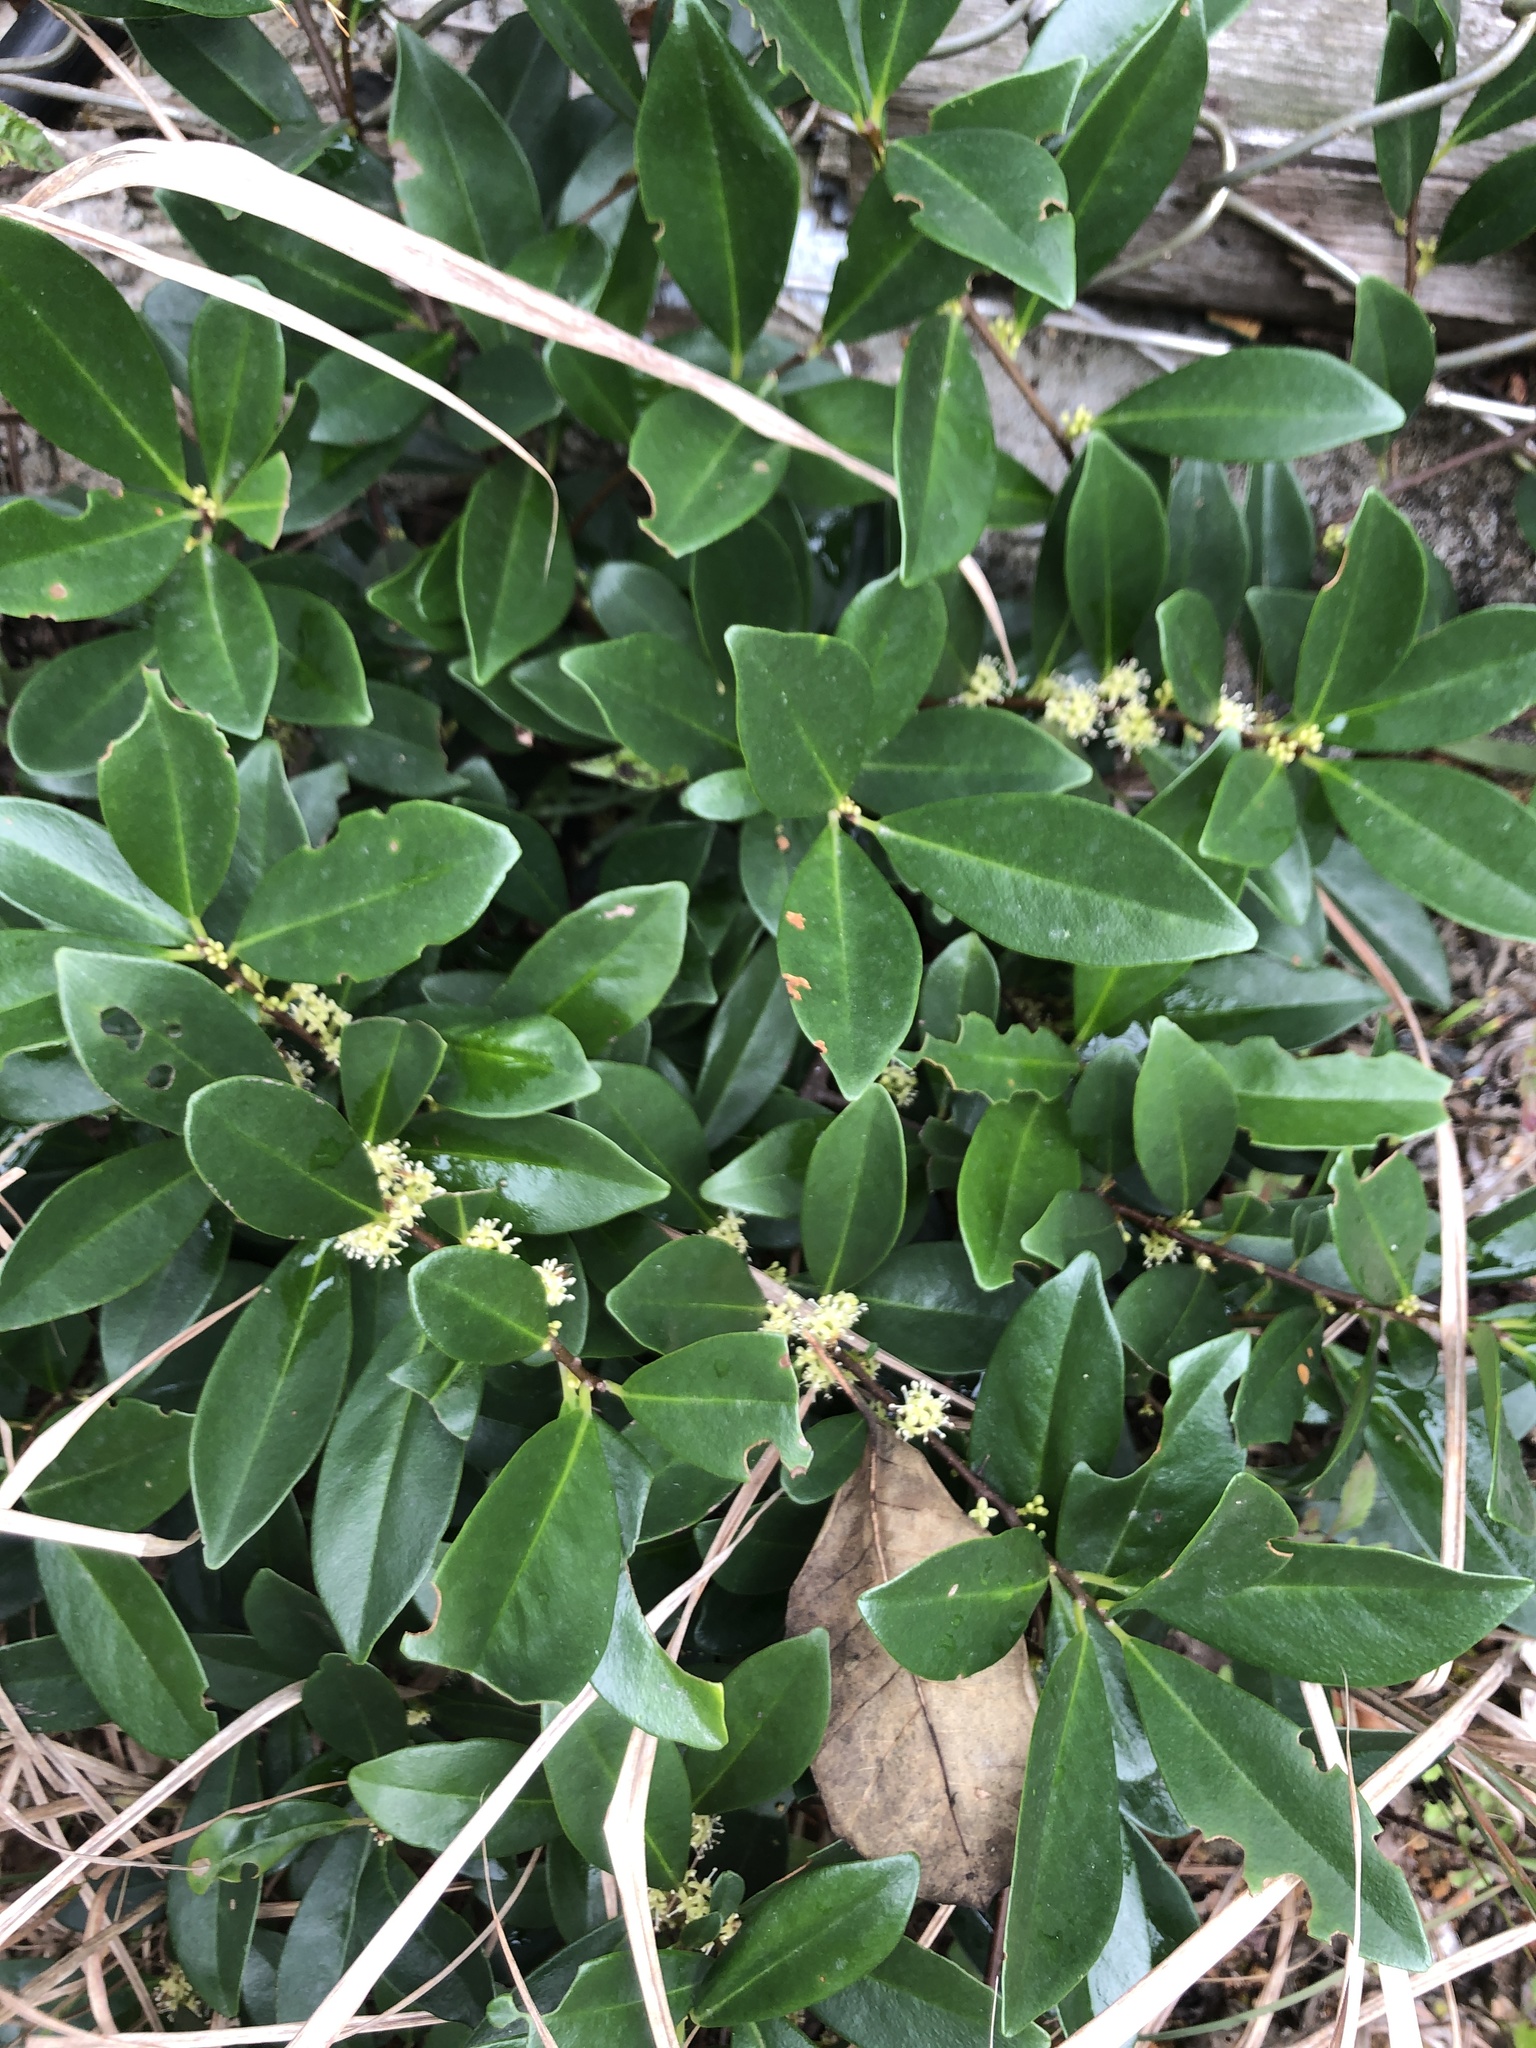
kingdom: Plantae
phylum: Tracheophyta
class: Magnoliopsida
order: Ericales
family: Primulaceae
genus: Embelia
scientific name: Embelia laeta
